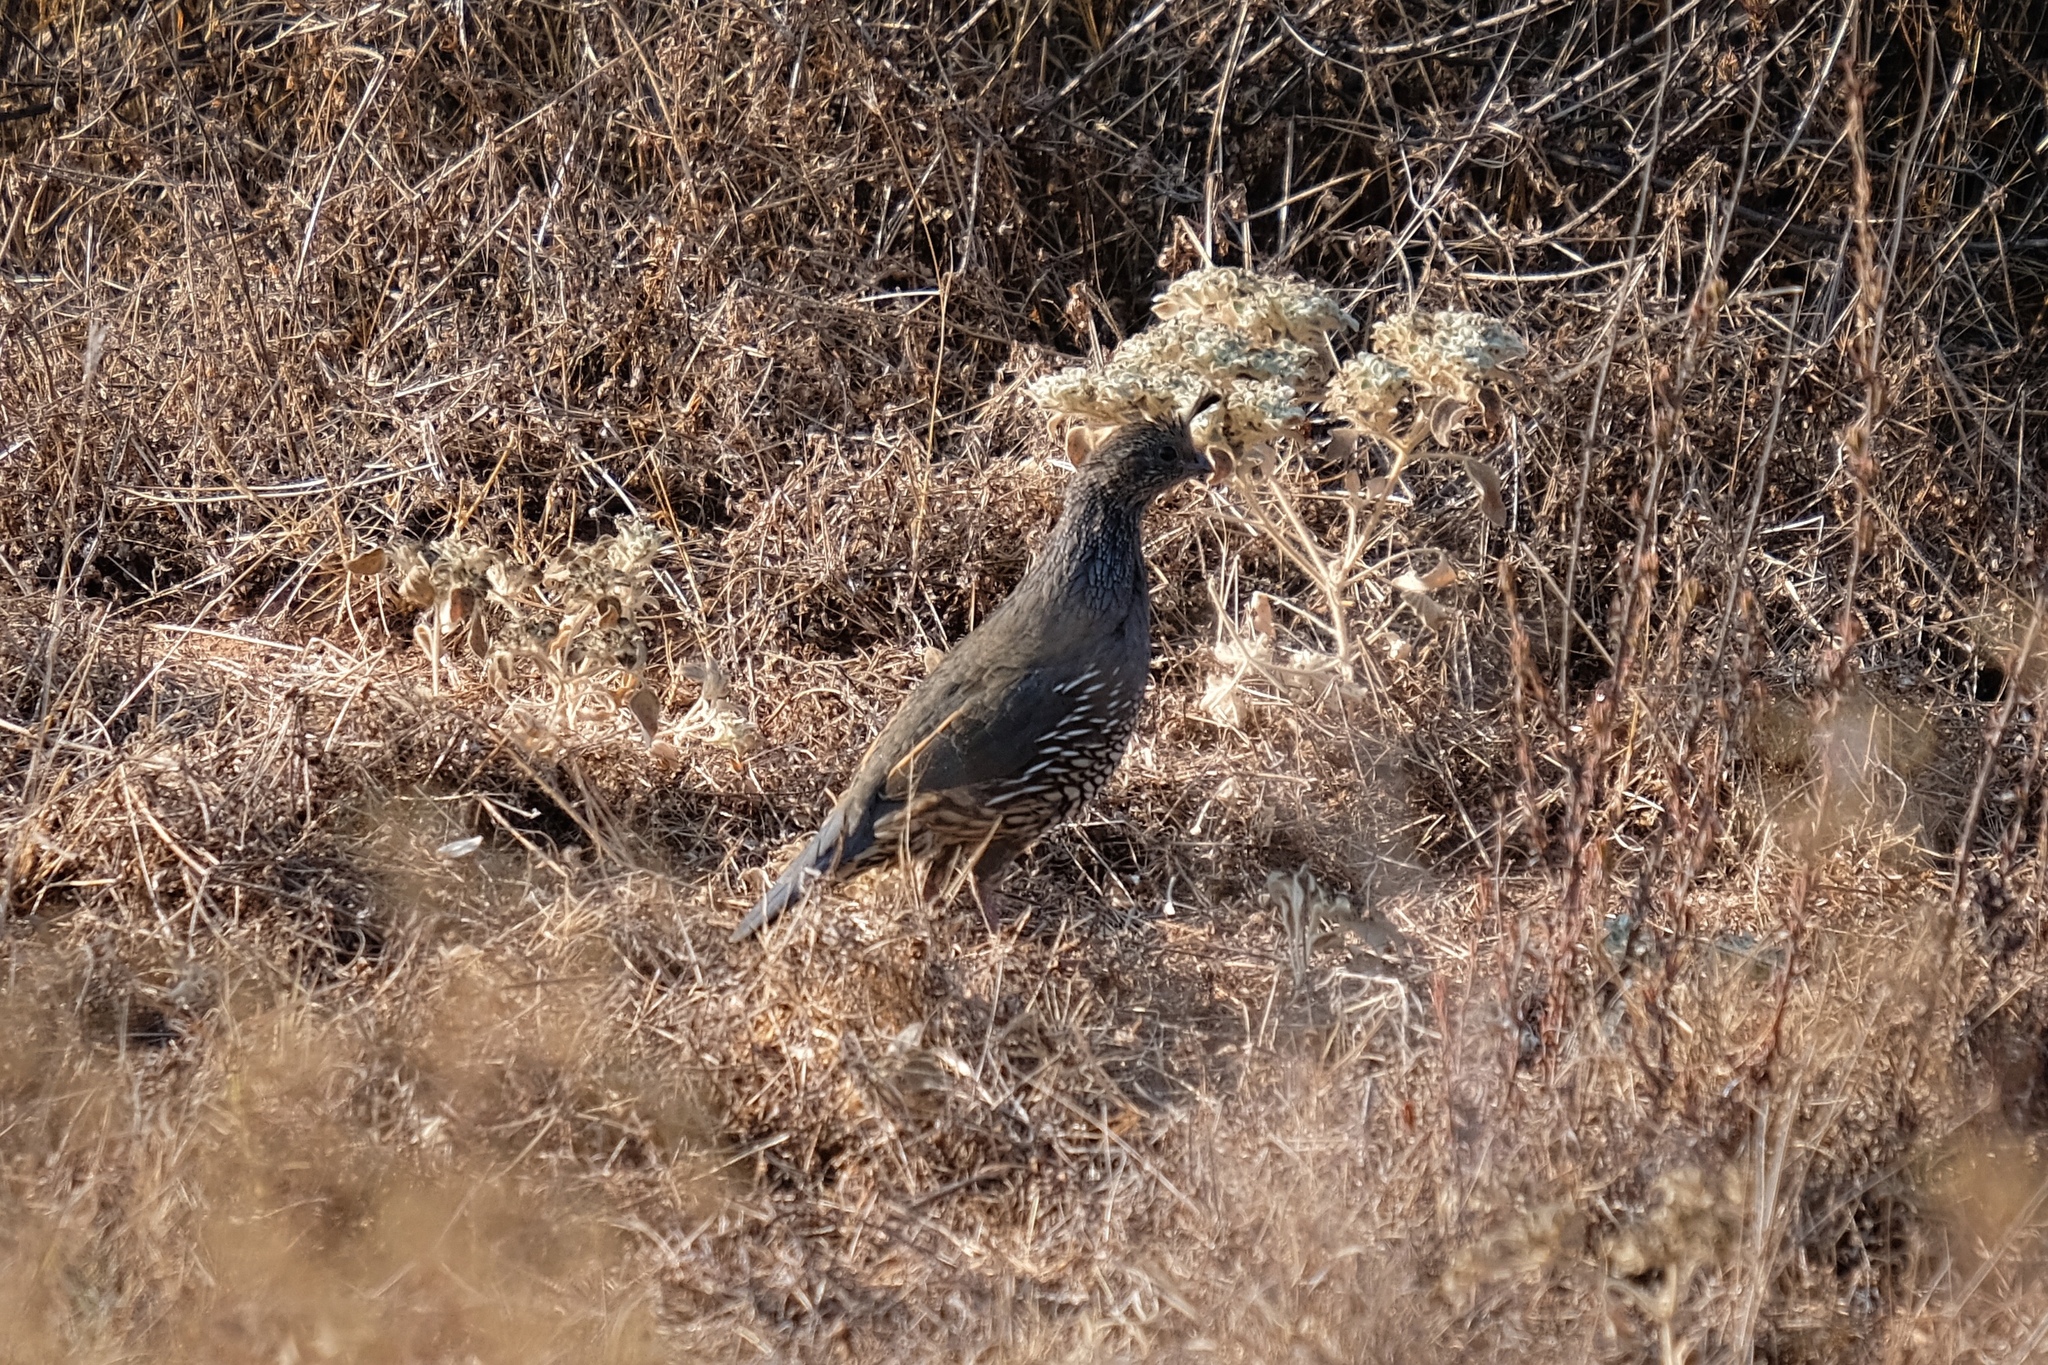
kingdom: Animalia
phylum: Chordata
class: Aves
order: Galliformes
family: Odontophoridae
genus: Callipepla
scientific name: Callipepla californica
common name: California quail
